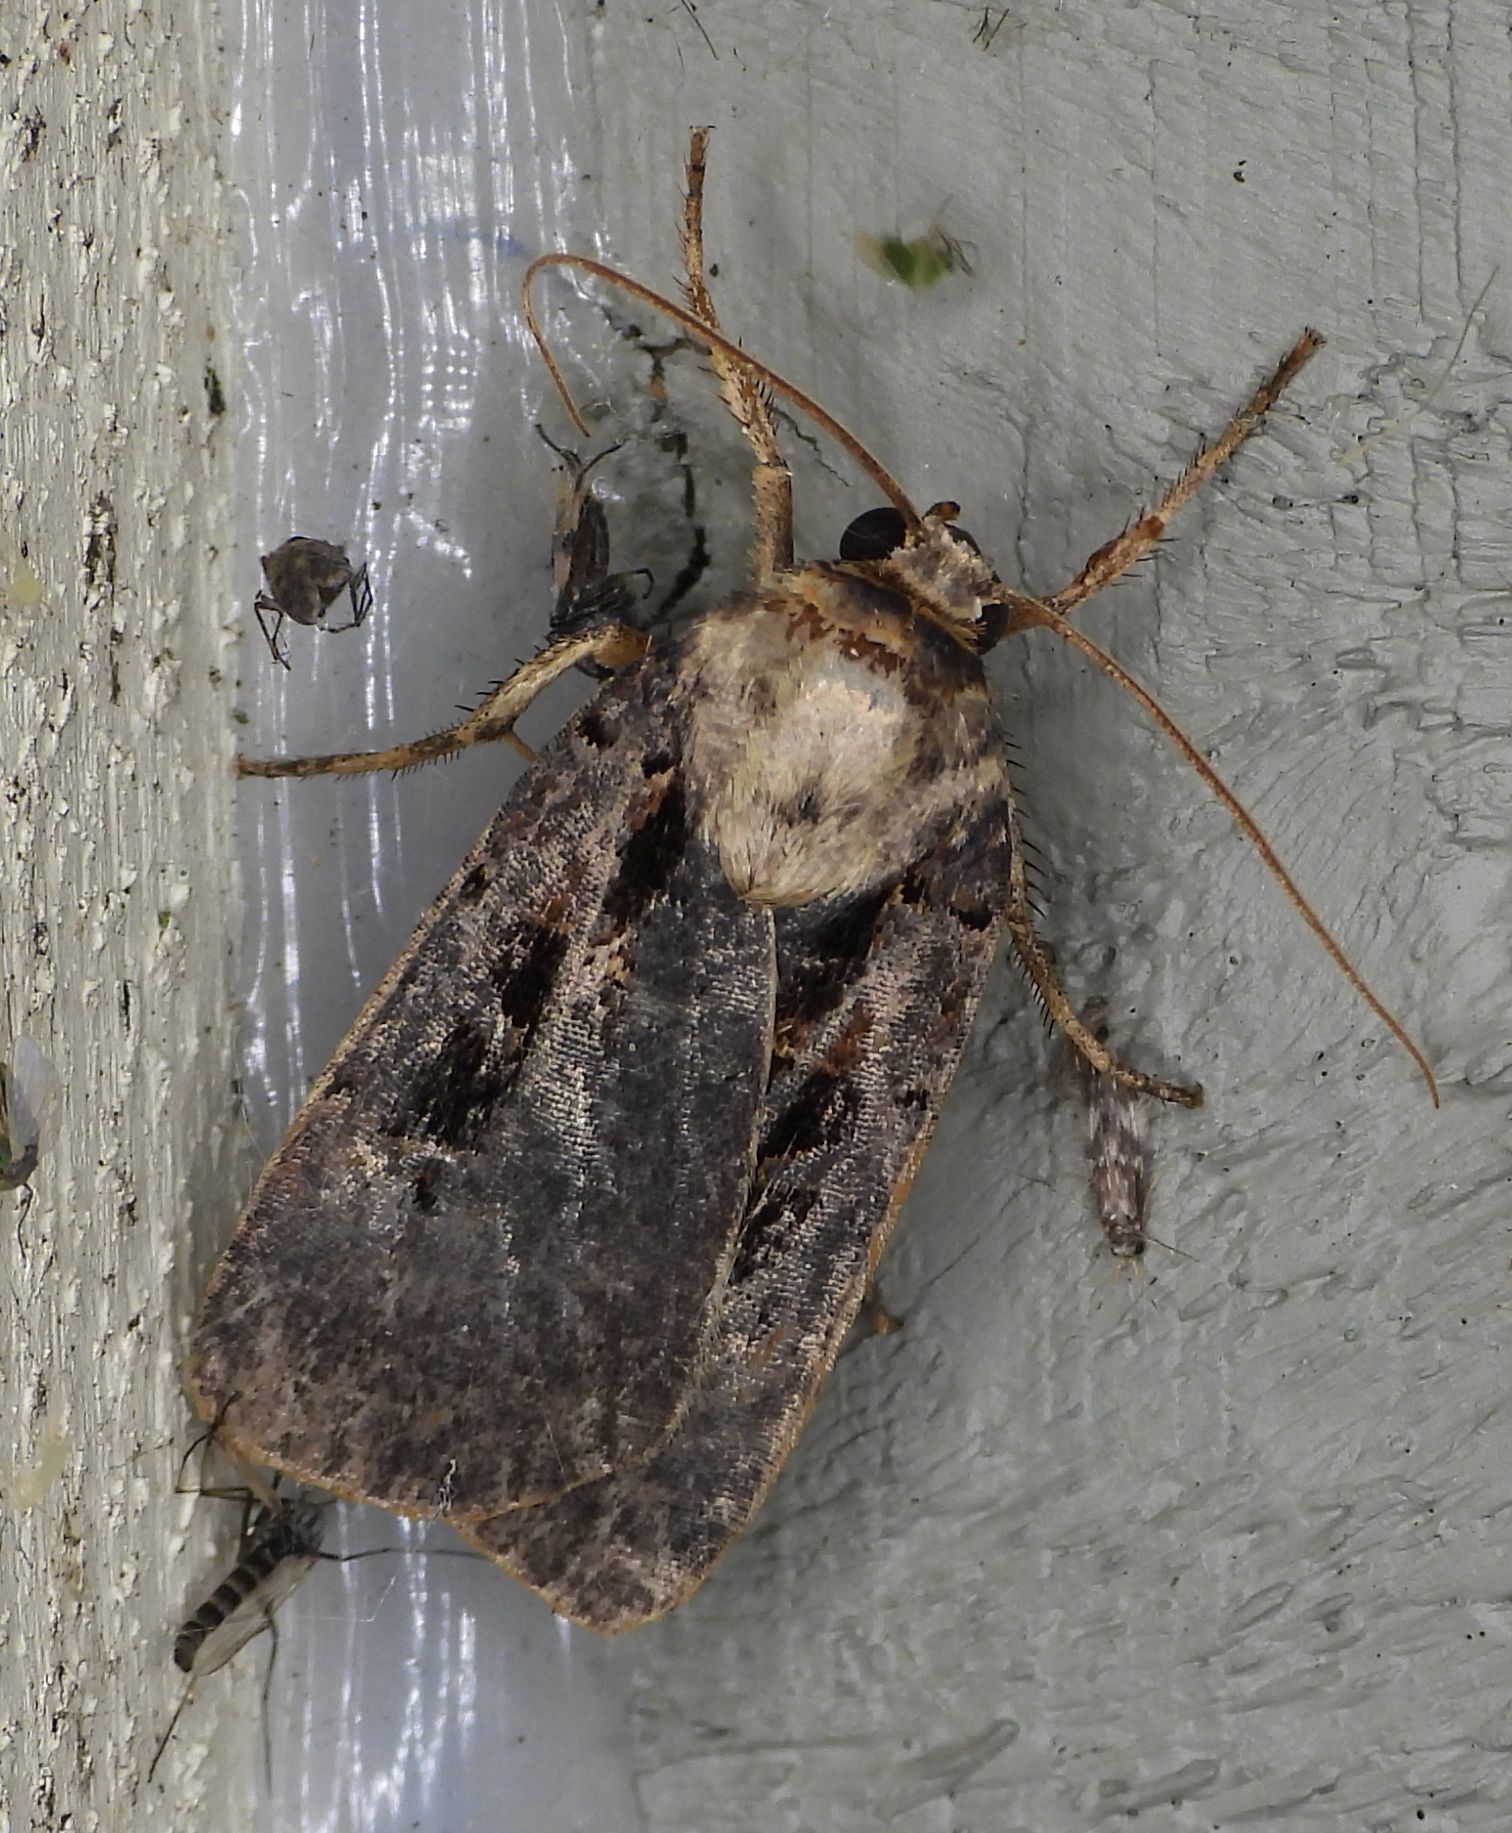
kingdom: Animalia
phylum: Arthropoda
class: Insecta
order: Lepidoptera
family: Noctuidae
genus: Pseudohermonassa
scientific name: Pseudohermonassa bicarnea
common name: Pink spotted dart
